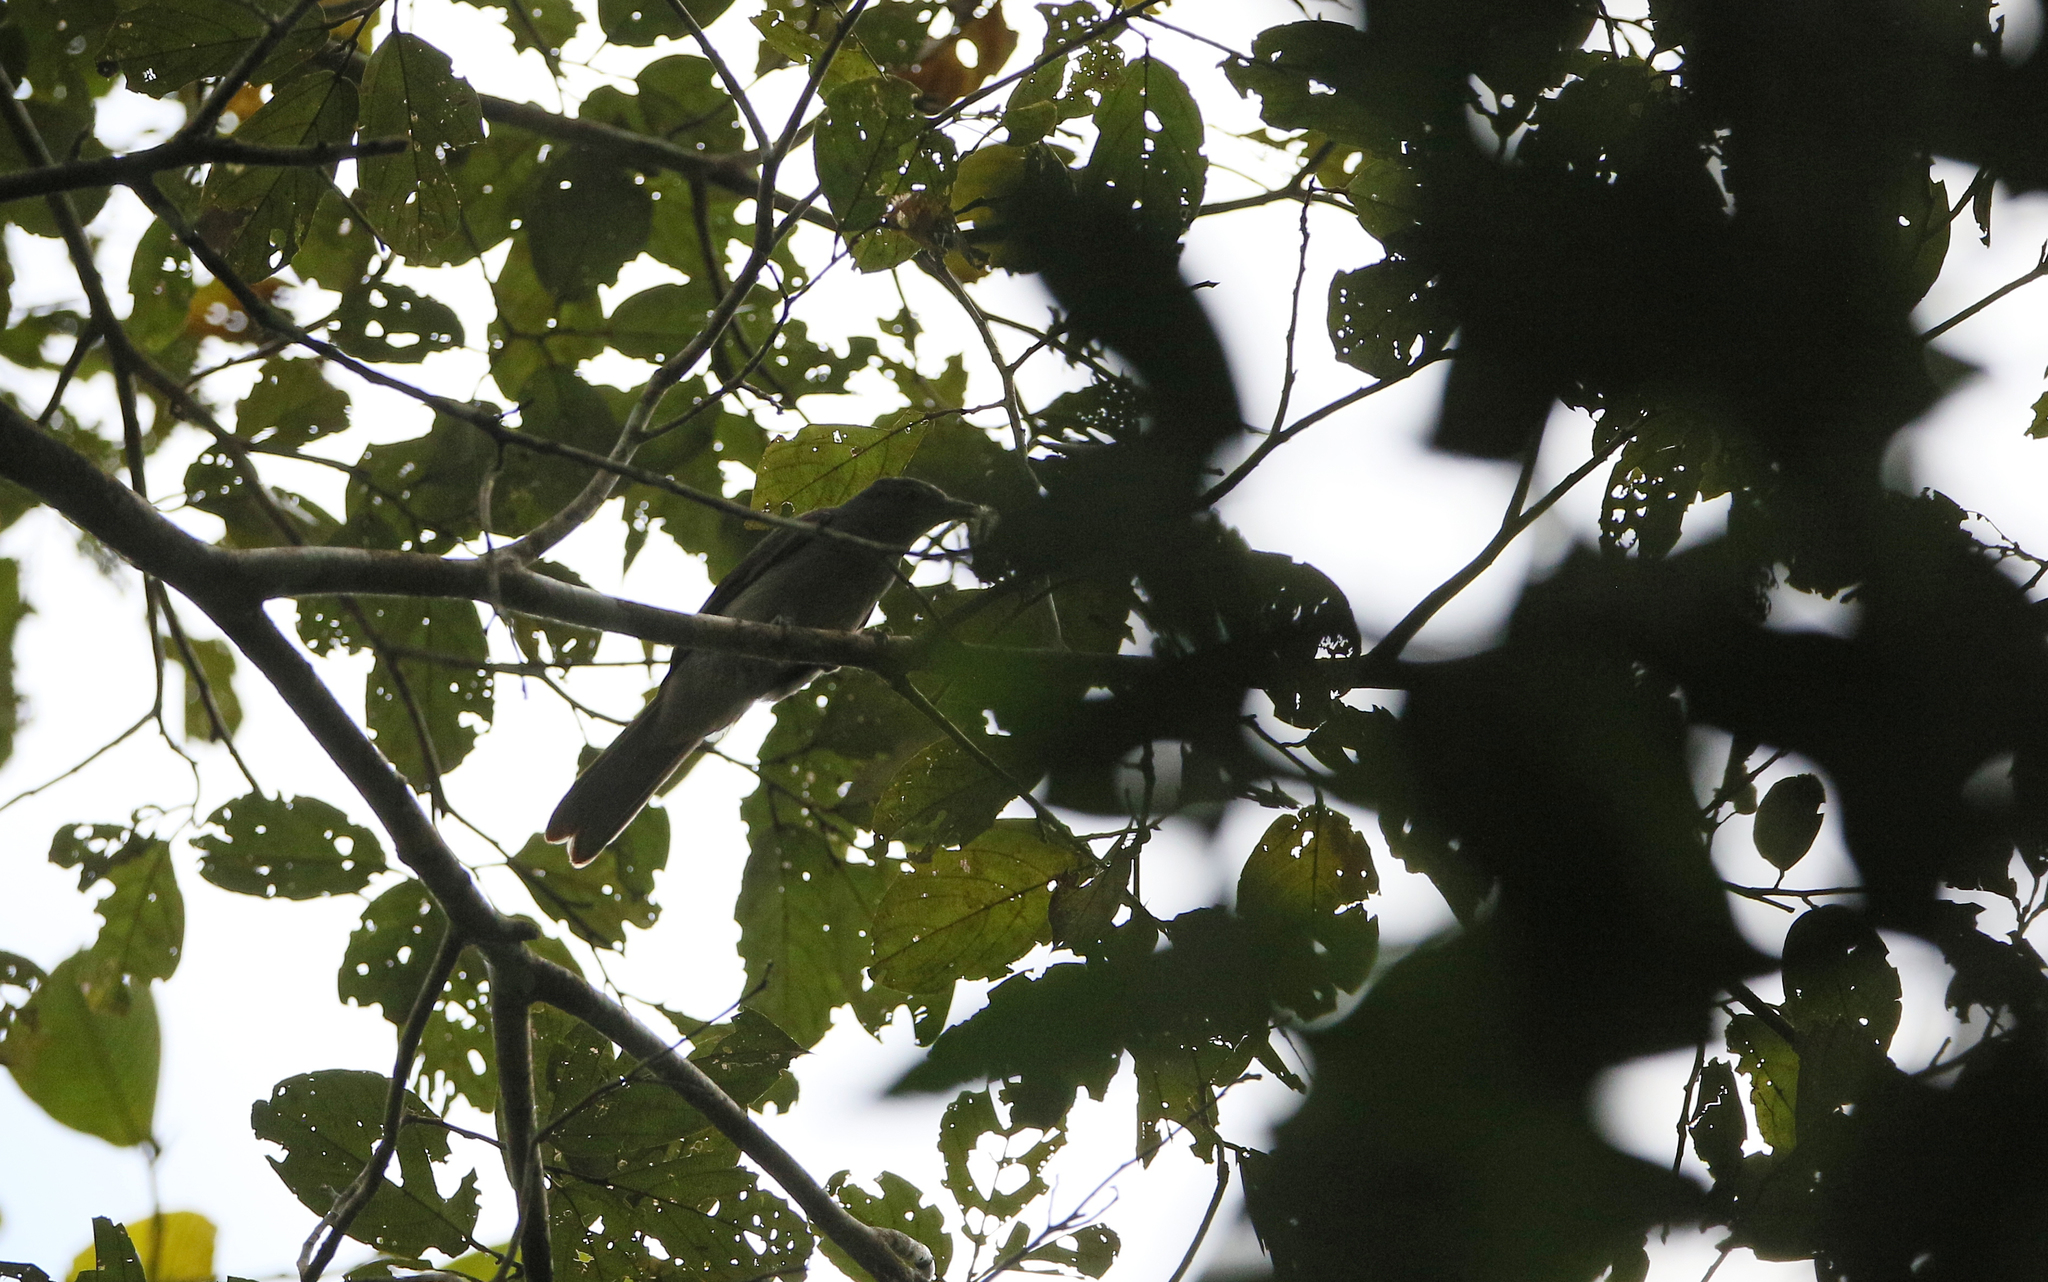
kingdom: Animalia
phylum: Chordata
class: Aves
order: Passeriformes
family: Tyrannidae
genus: Rhytipterna
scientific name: Rhytipterna simplex
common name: Greyish mourner
